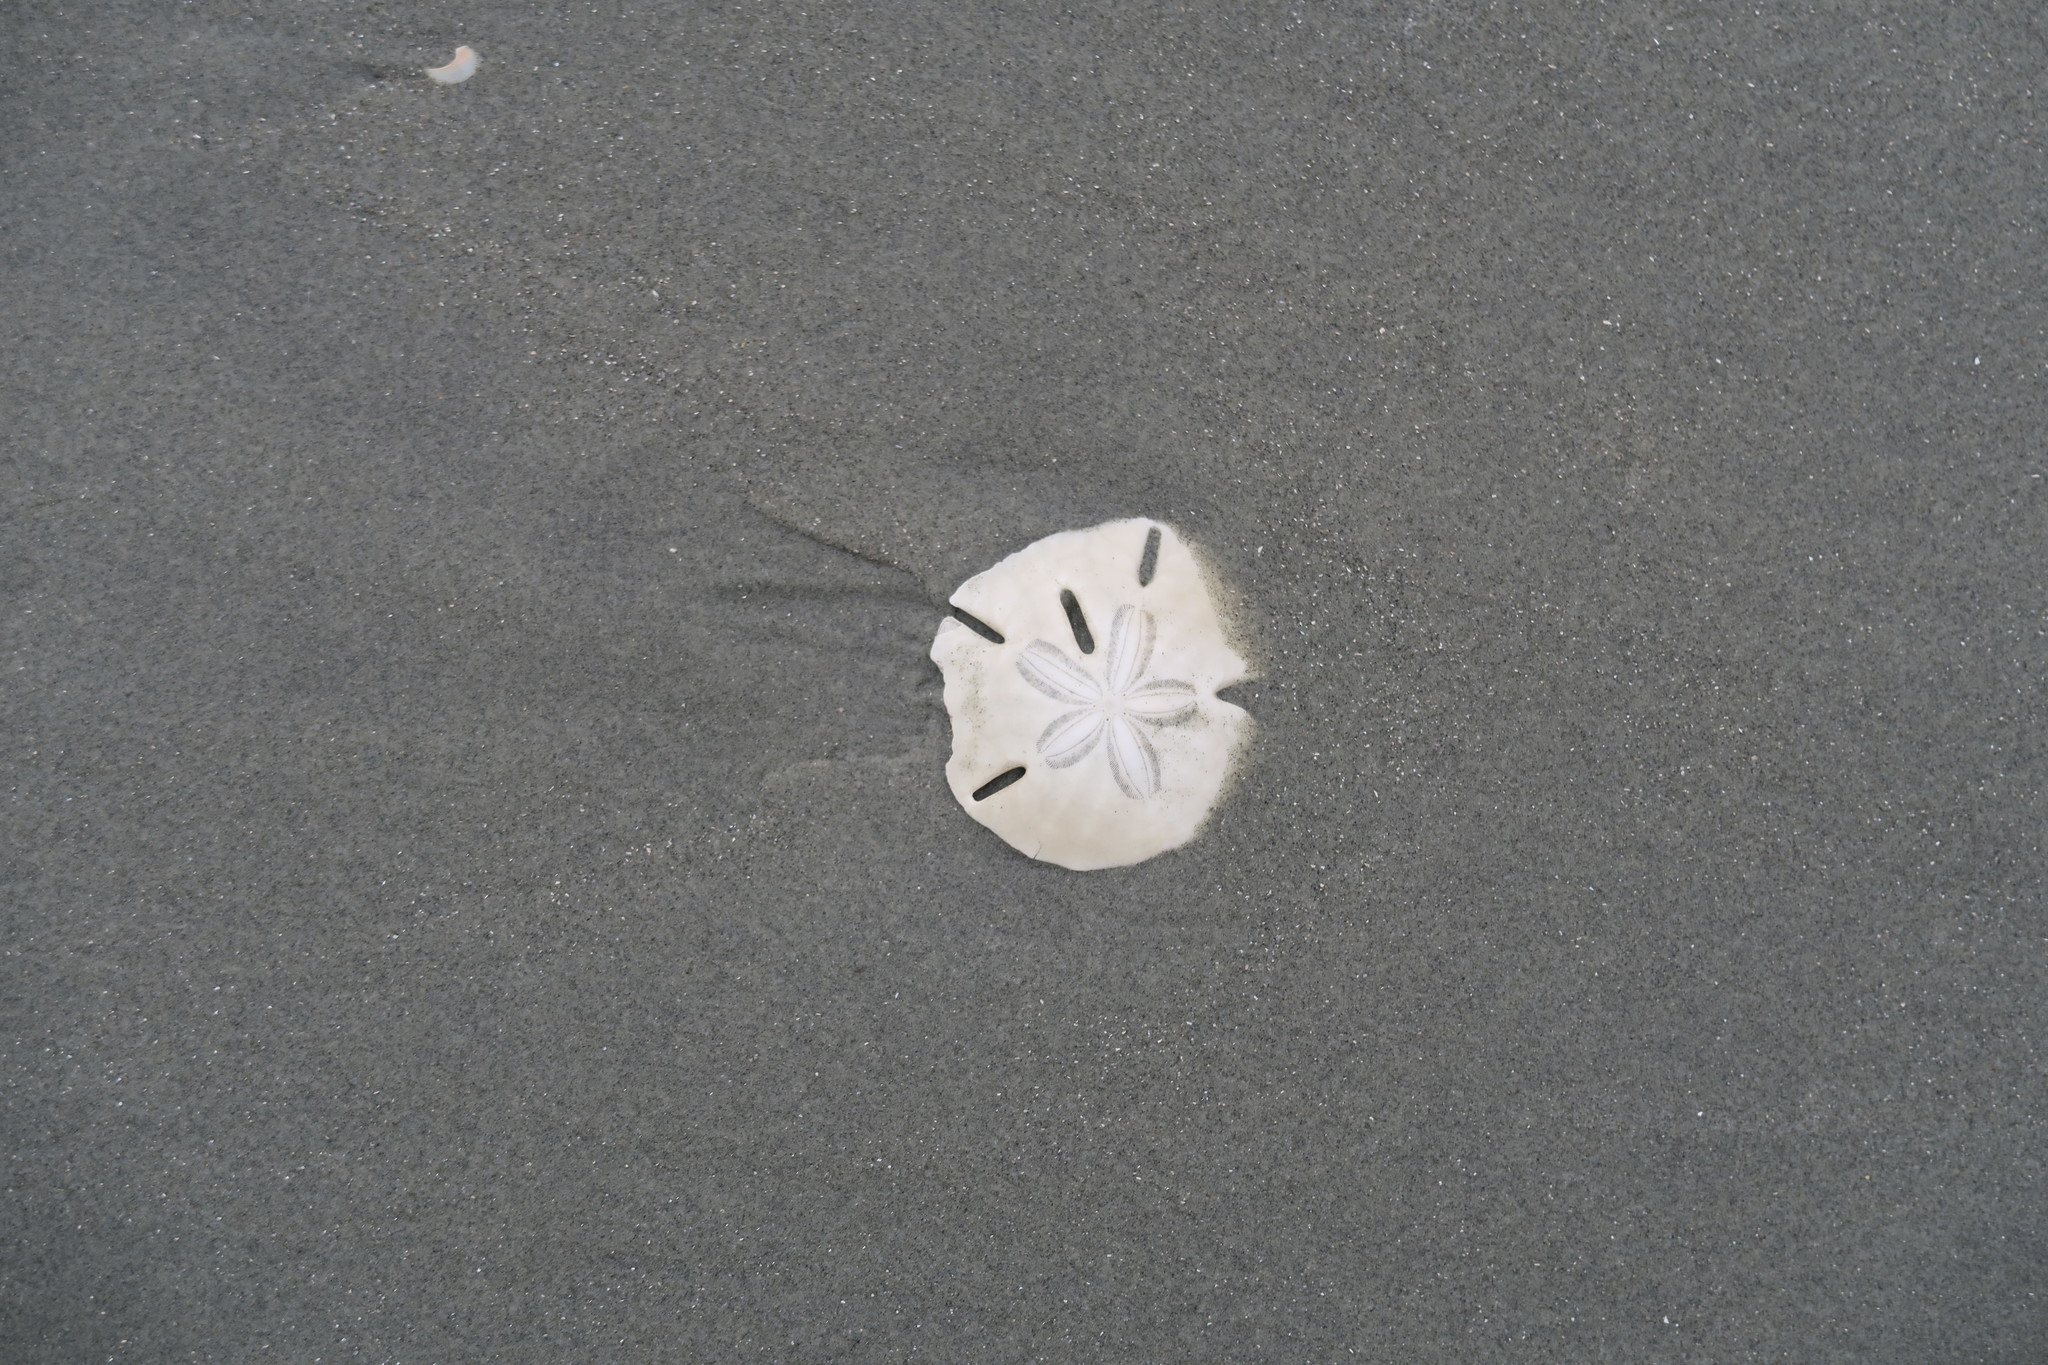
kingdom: Animalia
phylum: Echinodermata
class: Echinoidea
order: Echinolampadacea
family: Mellitidae
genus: Mellita
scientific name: Mellita isometra
